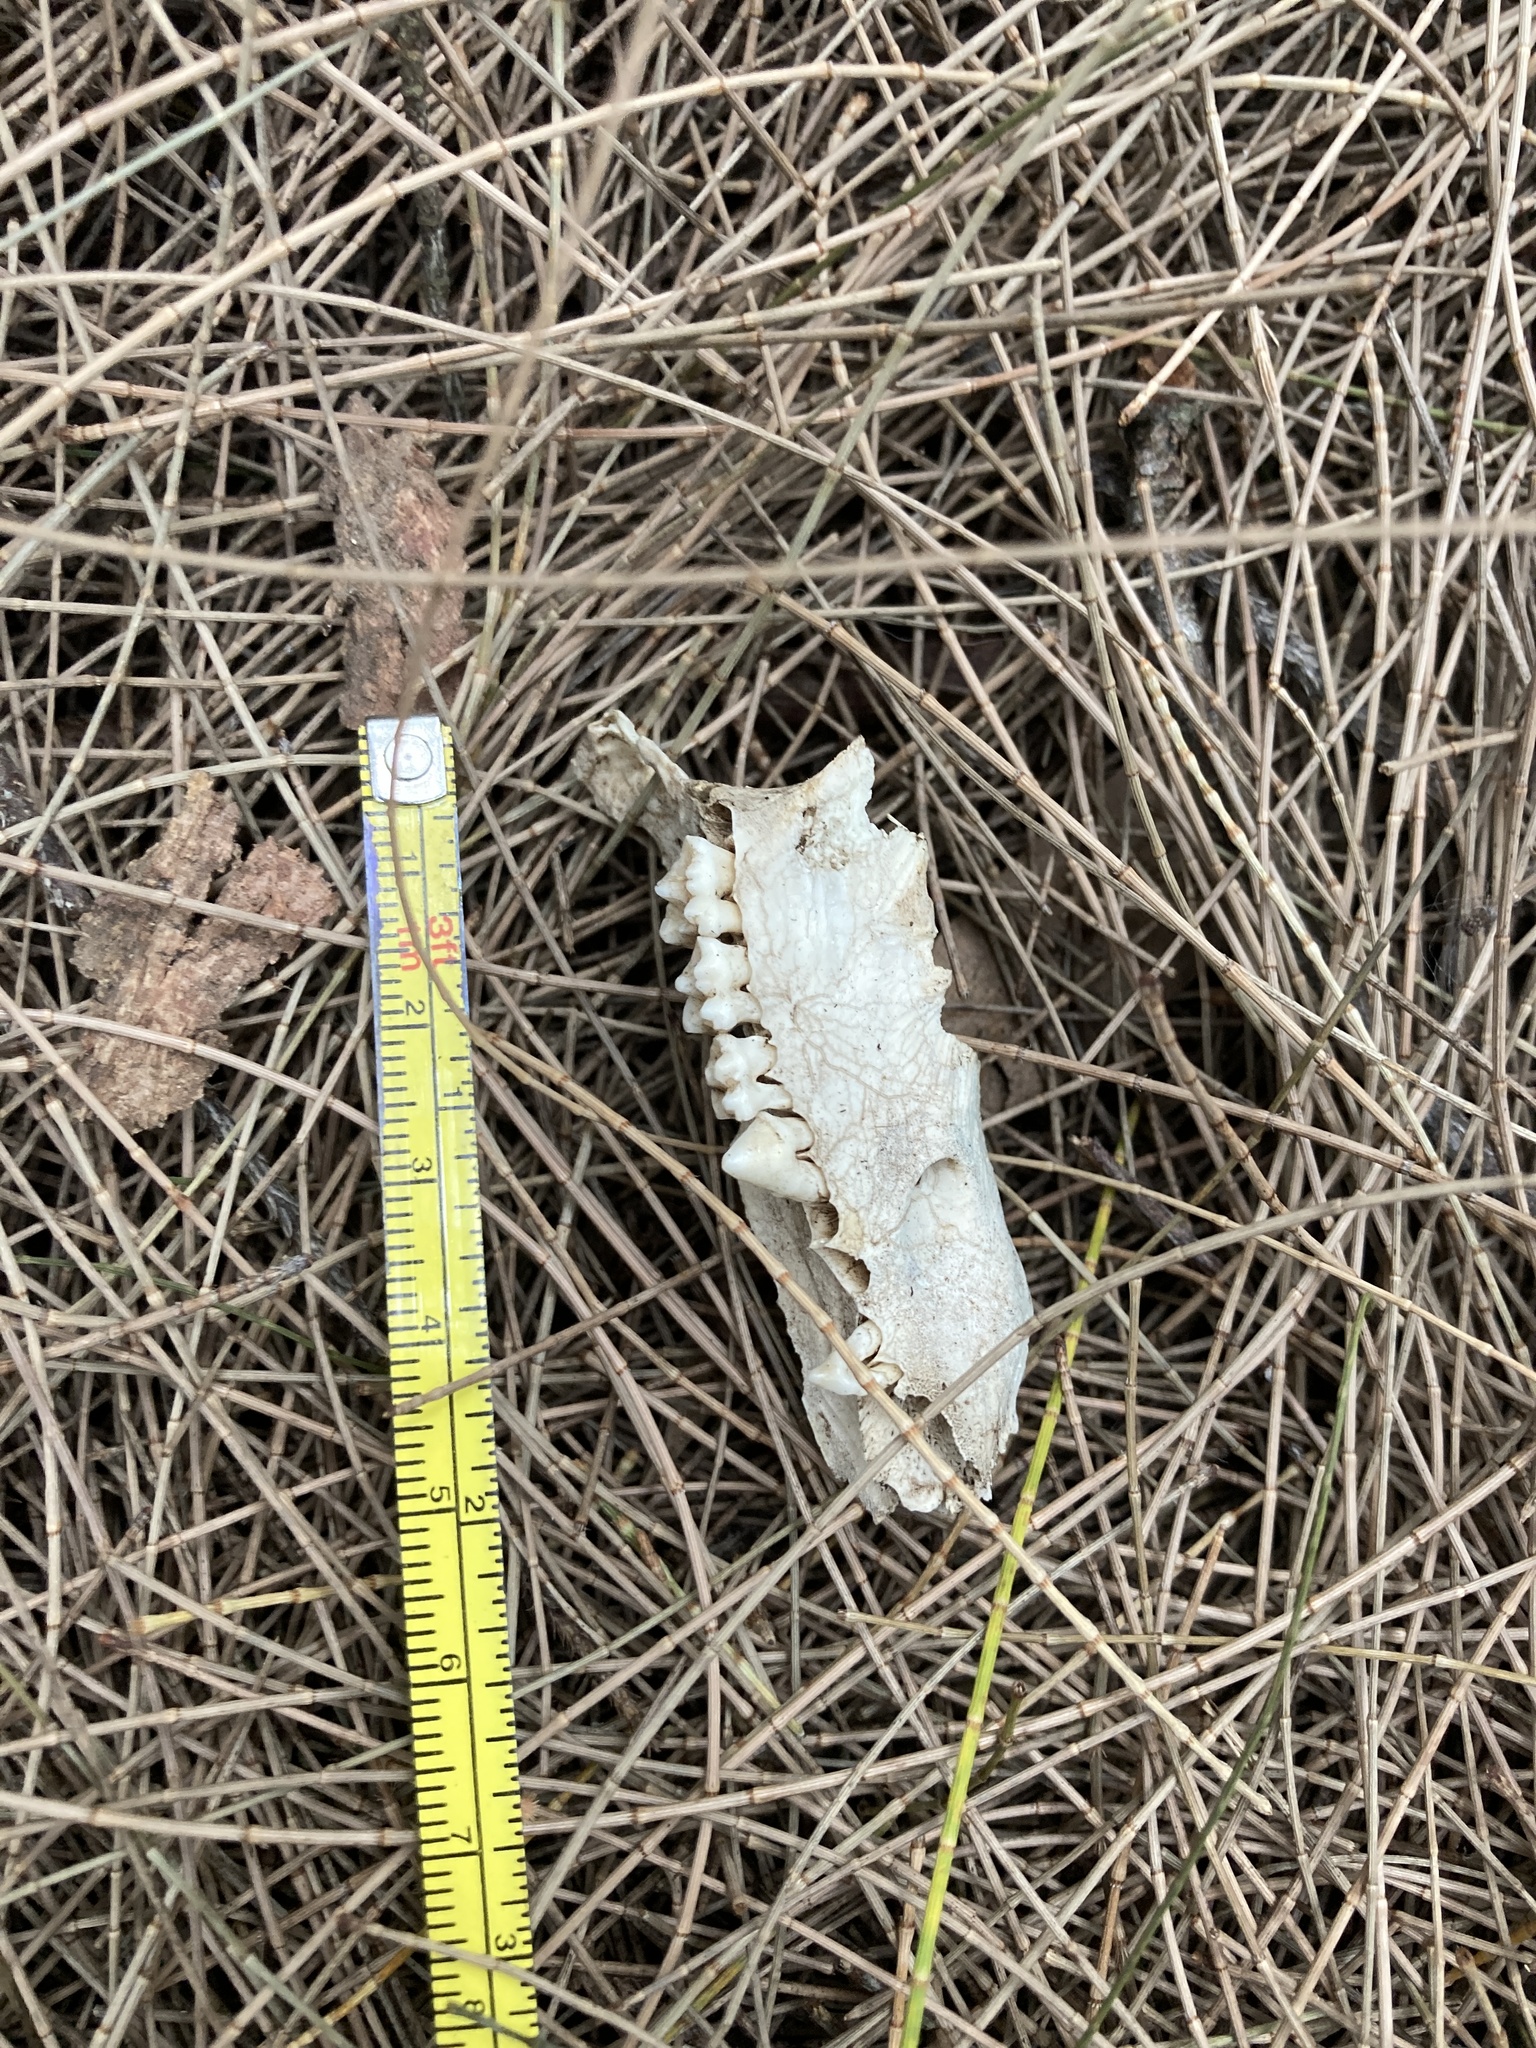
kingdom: Animalia
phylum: Chordata
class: Mammalia
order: Didelphimorphia
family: Didelphidae
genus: Didelphis
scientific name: Didelphis virginiana
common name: Virginia opossum
